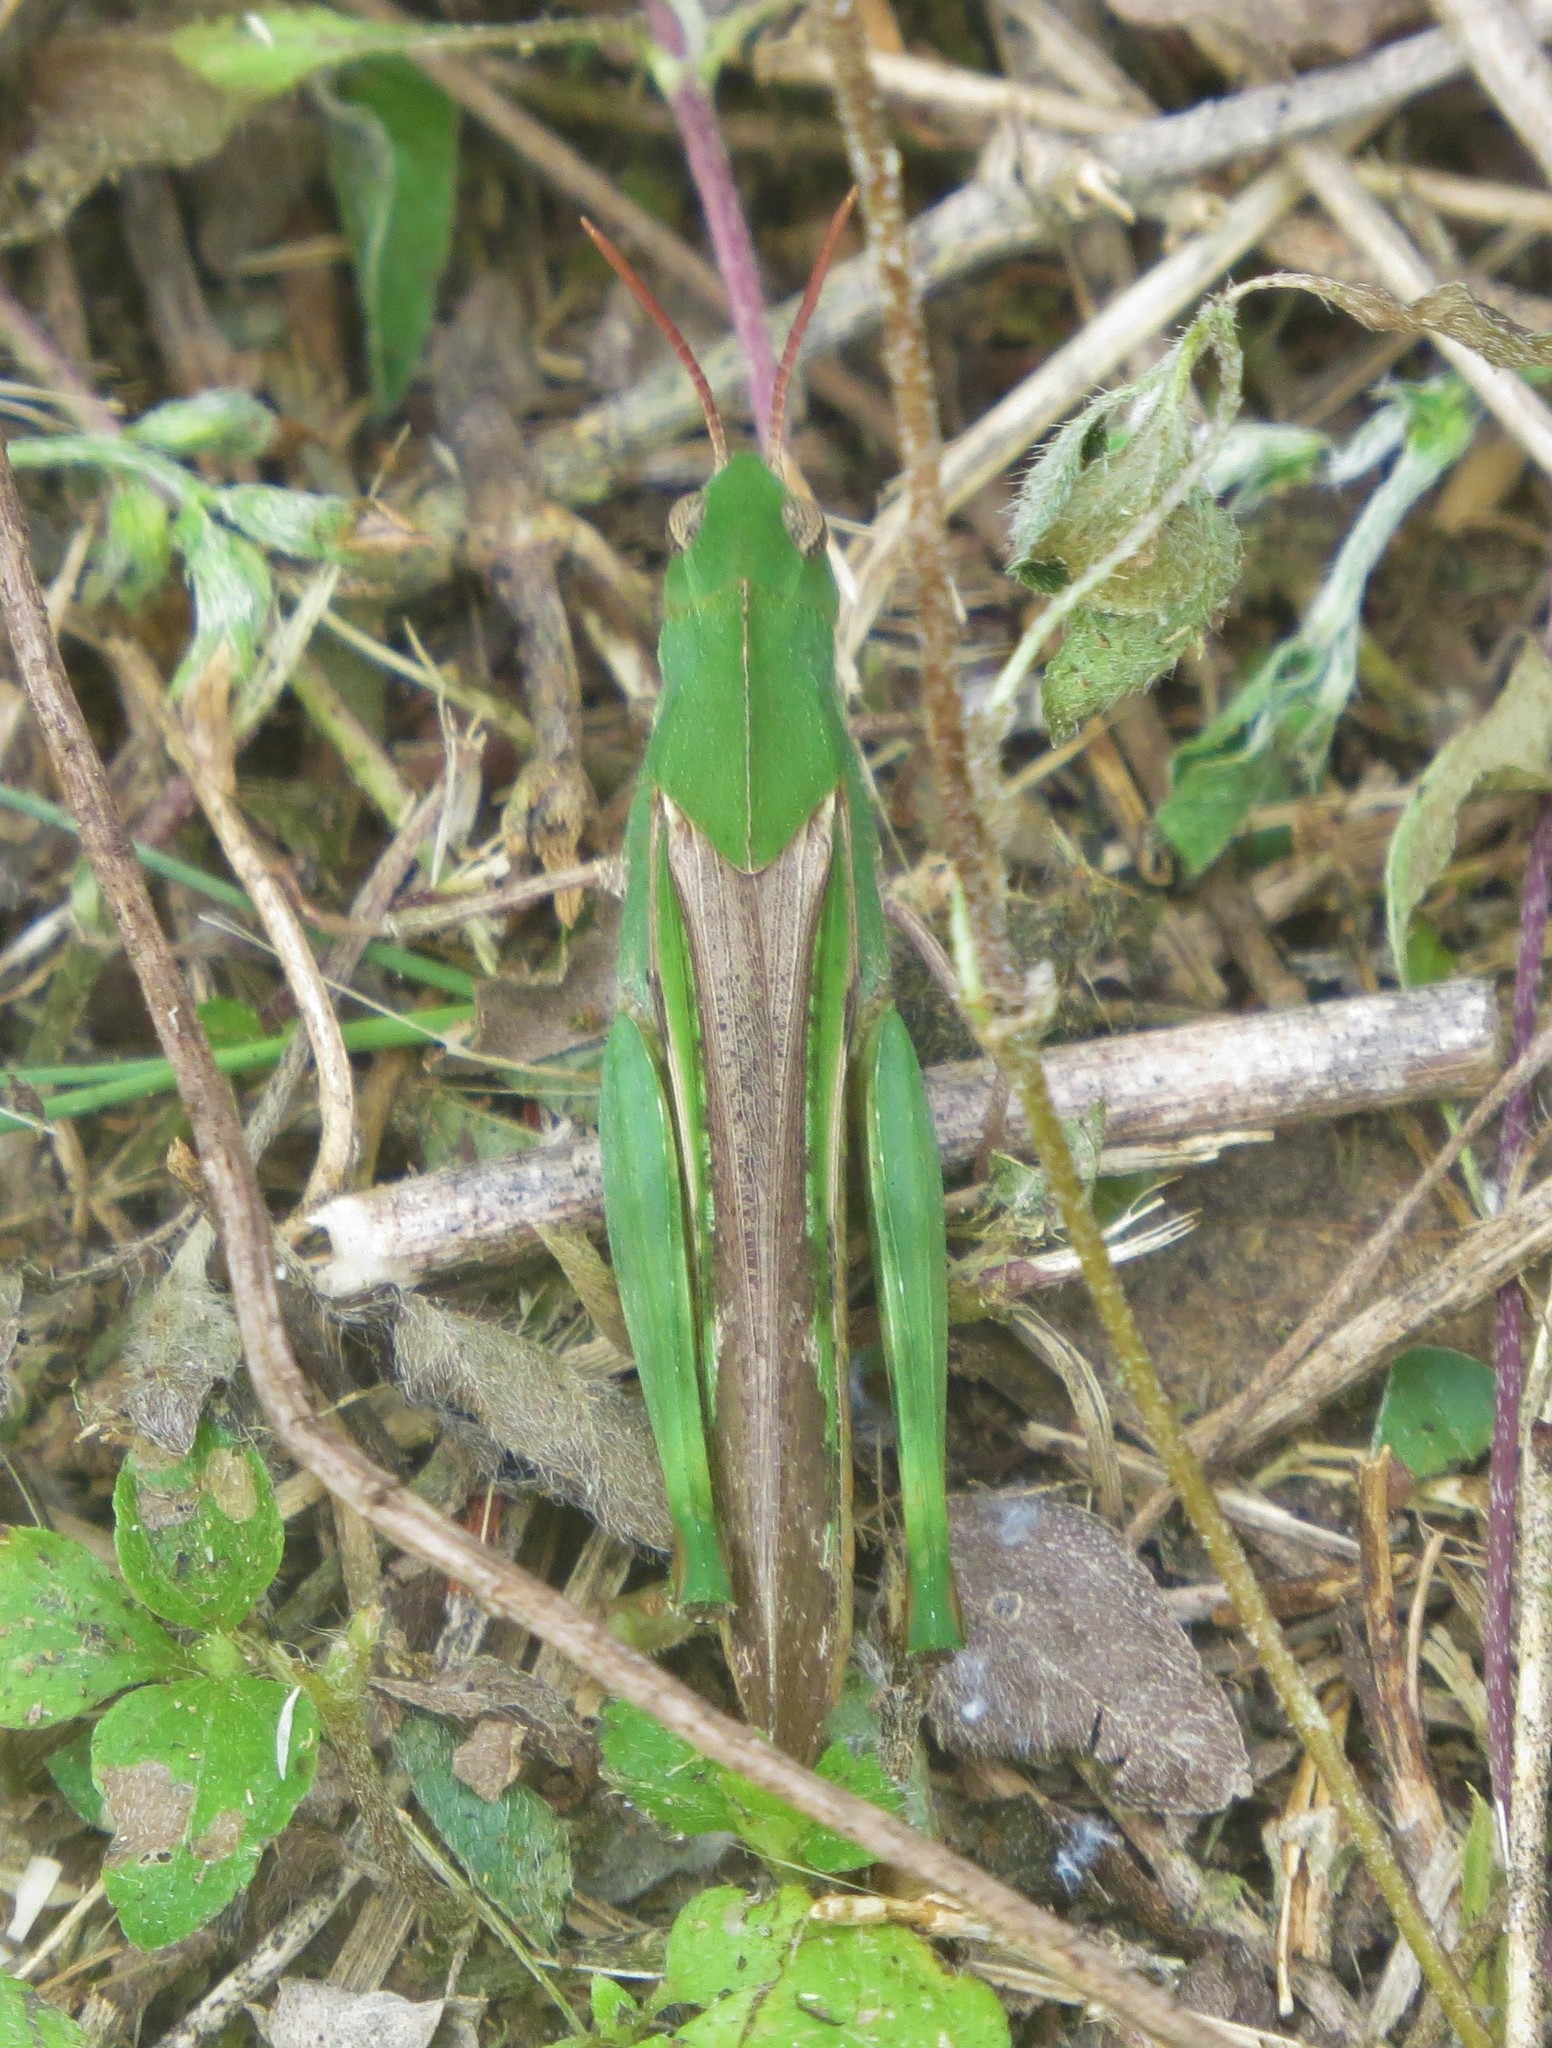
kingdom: Animalia
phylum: Arthropoda
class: Insecta
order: Orthoptera
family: Acrididae
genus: Chortophaga
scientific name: Chortophaga viridifasciata
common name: Green-striped grasshopper
